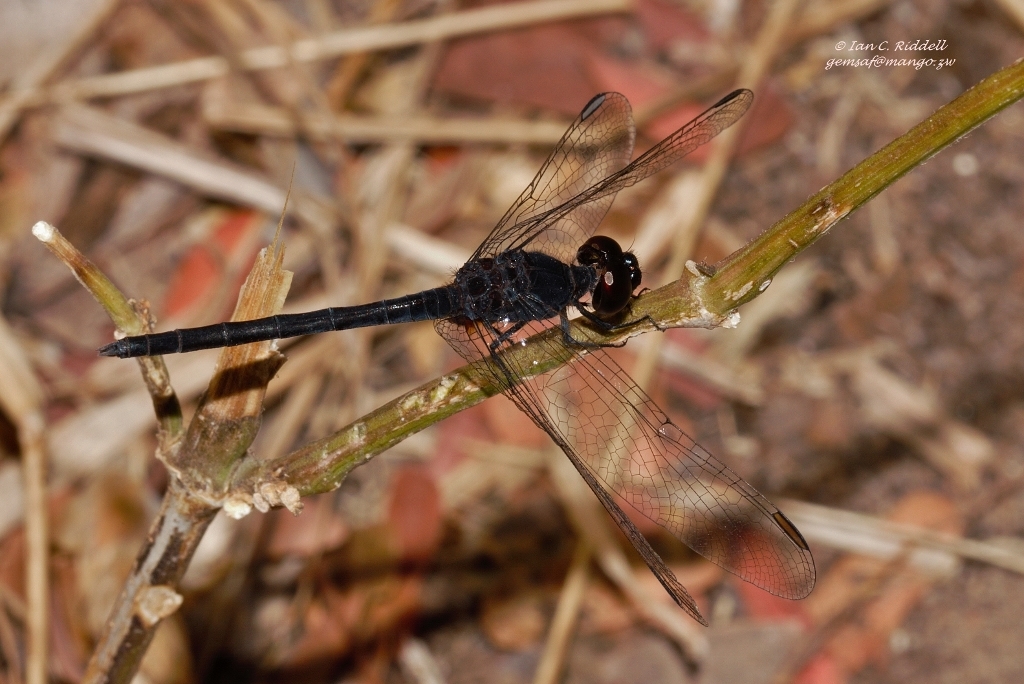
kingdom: Animalia
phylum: Arthropoda
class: Insecta
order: Odonata
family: Libellulidae
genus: Diplacodes
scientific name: Diplacodes lefebvrii
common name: Black percher
